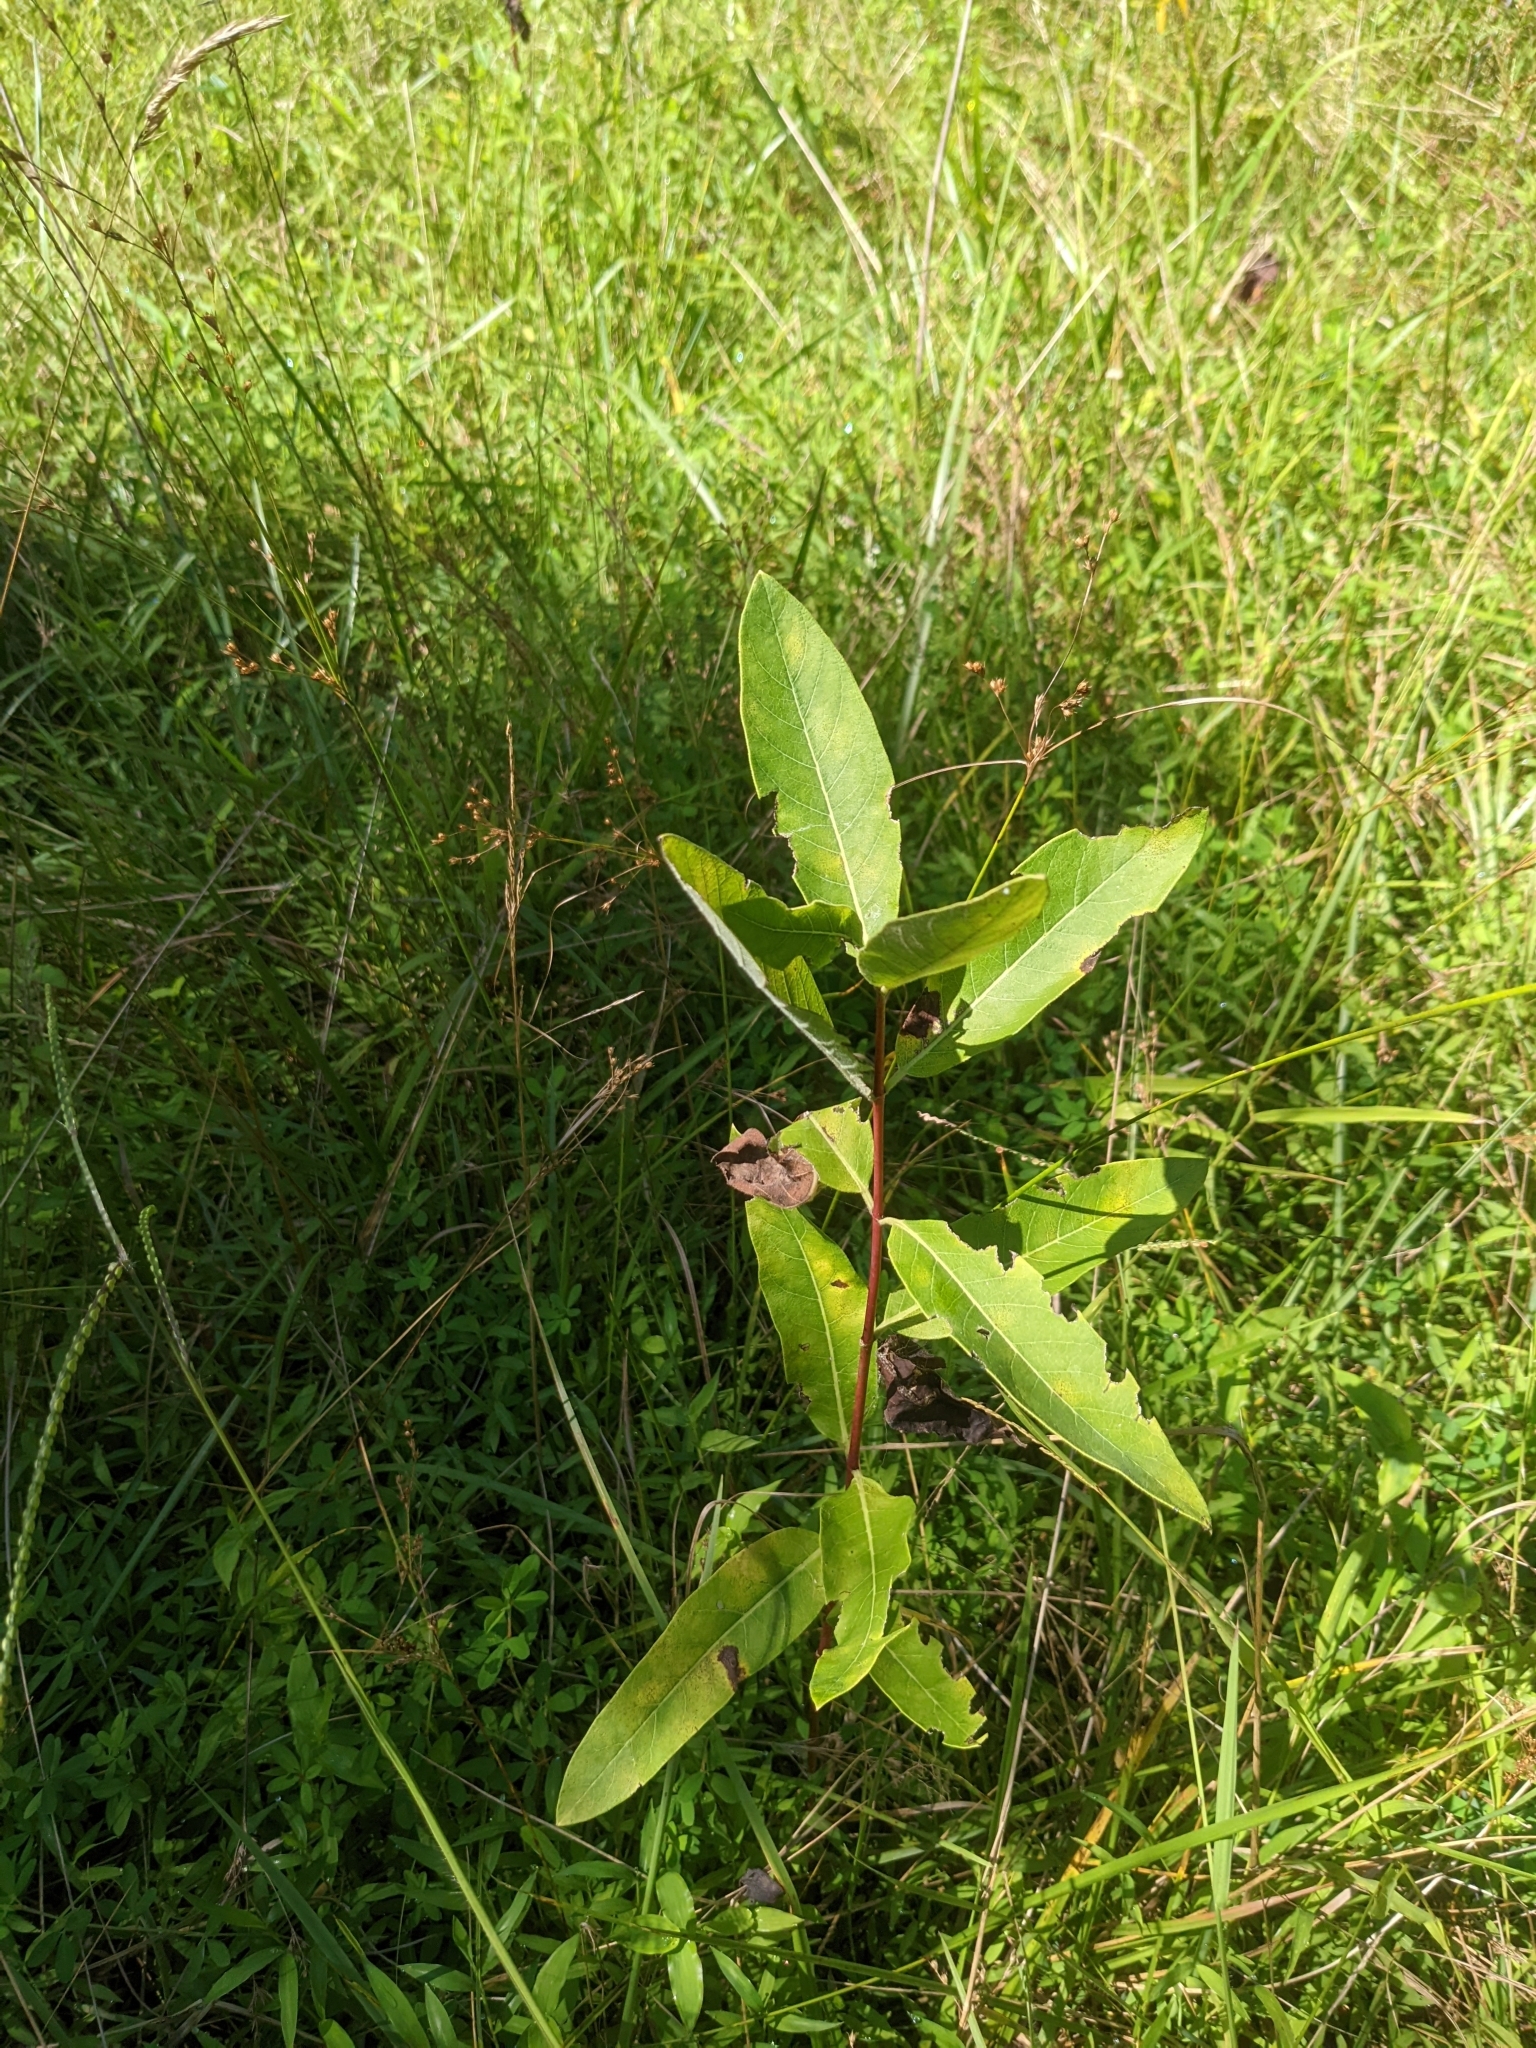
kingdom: Plantae
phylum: Tracheophyta
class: Magnoliopsida
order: Gentianales
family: Apocynaceae
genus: Asclepias
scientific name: Asclepias syriaca
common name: Common milkweed
